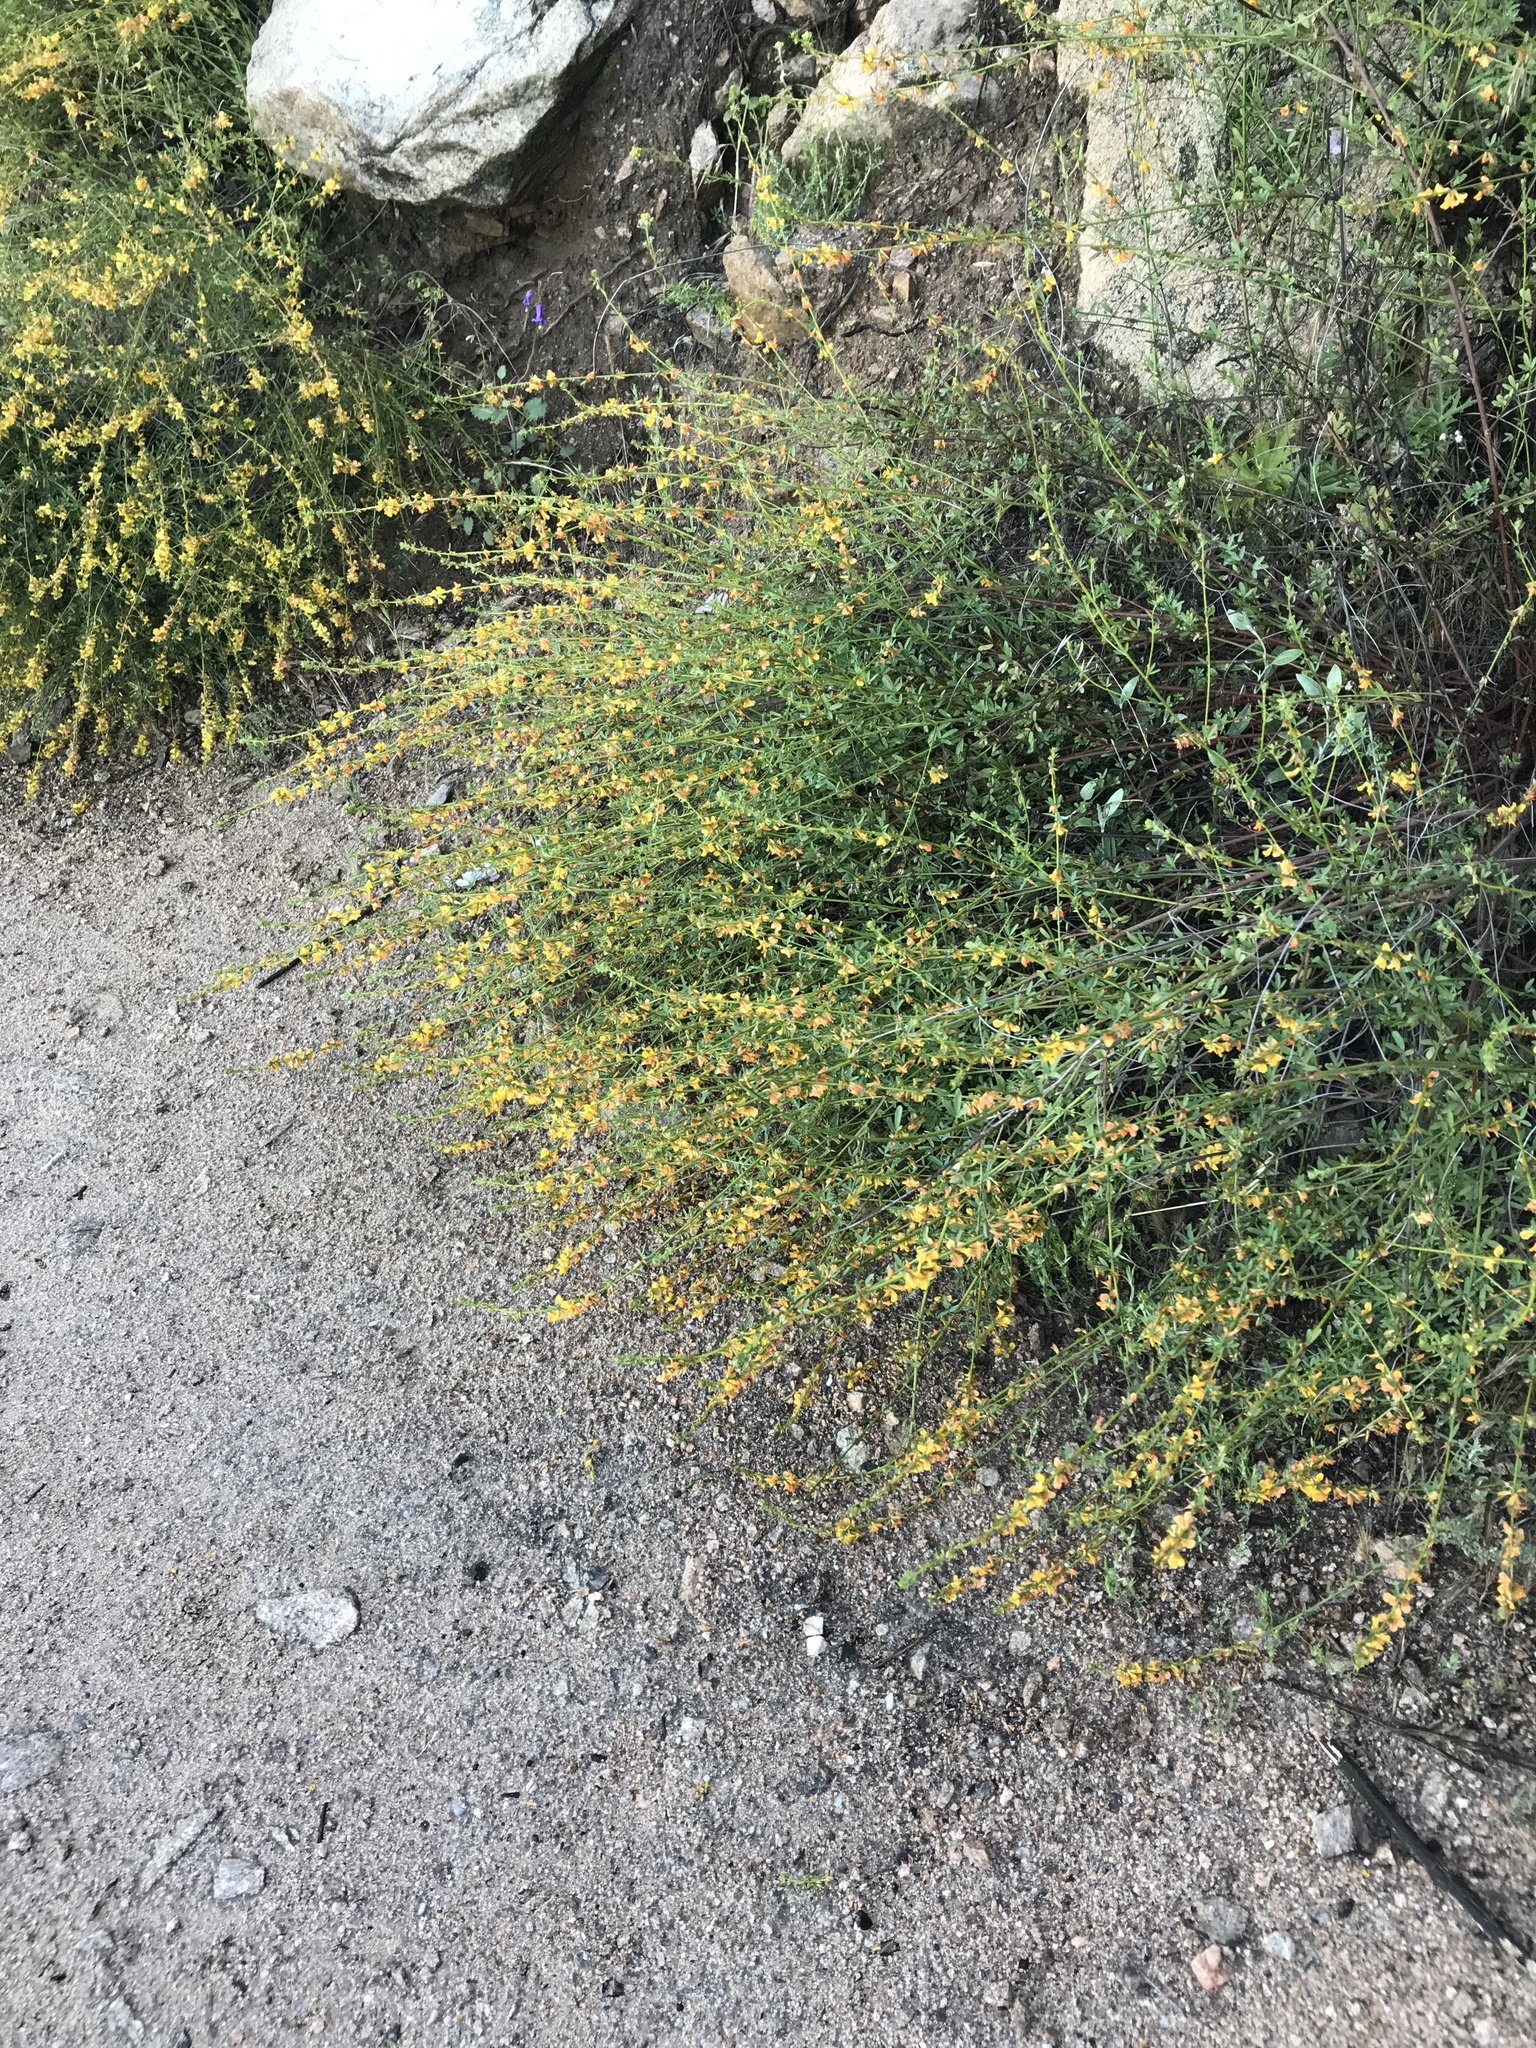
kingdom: Plantae
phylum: Tracheophyta
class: Magnoliopsida
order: Fabales
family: Fabaceae
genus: Acmispon
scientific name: Acmispon glaber
